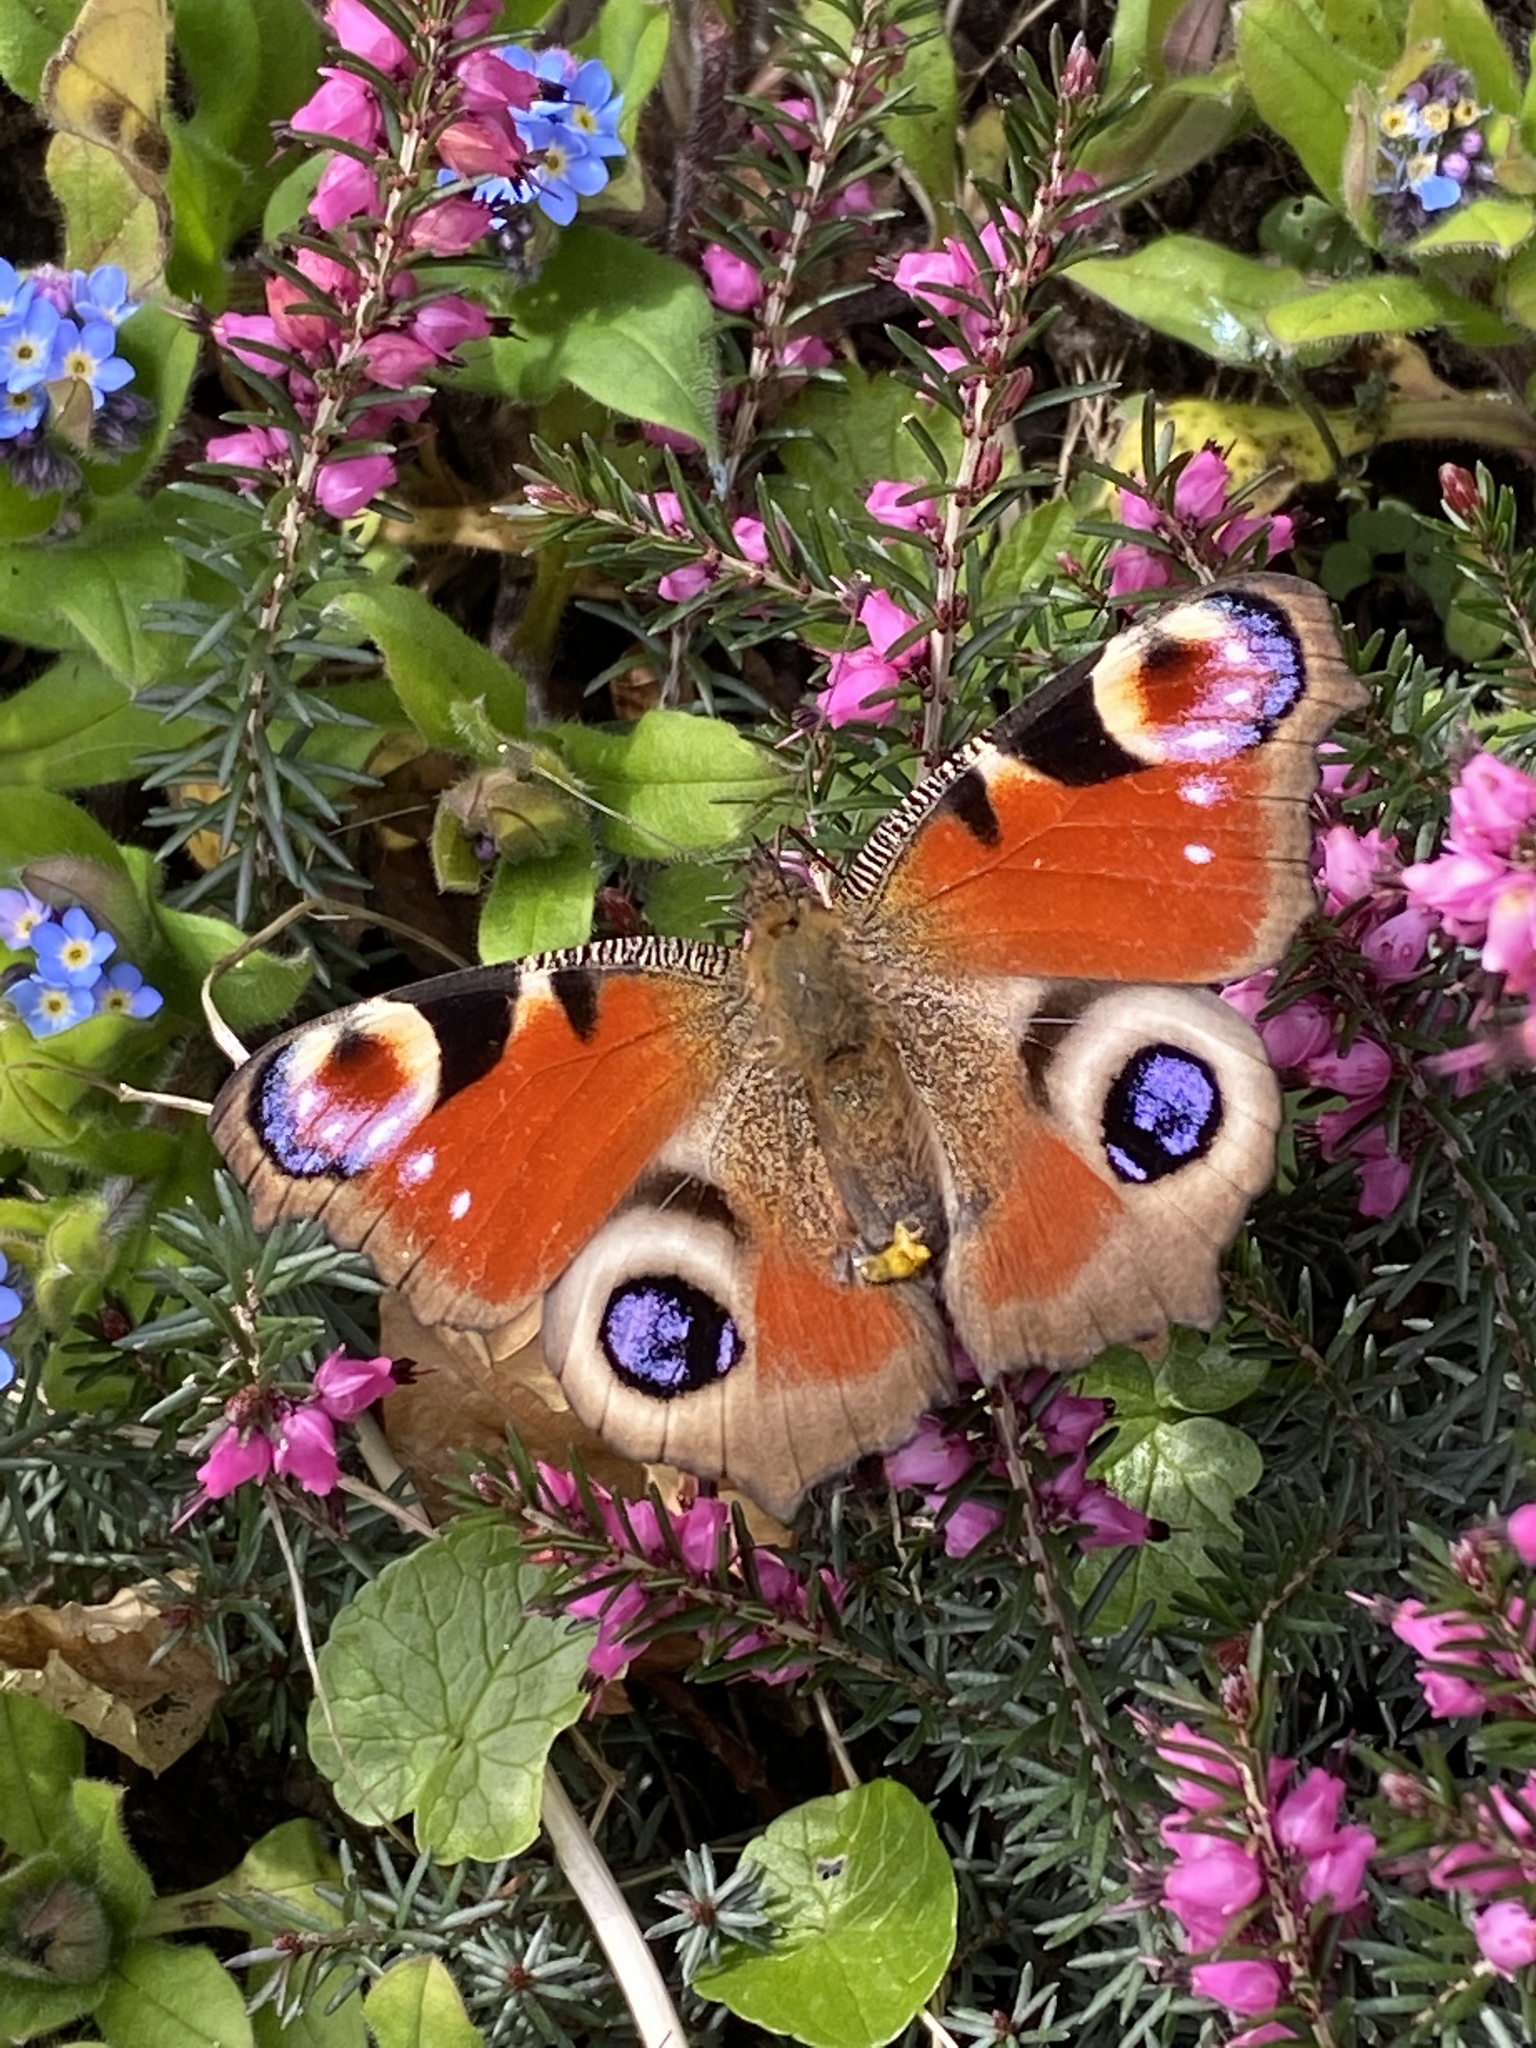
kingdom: Animalia
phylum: Arthropoda
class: Insecta
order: Lepidoptera
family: Nymphalidae
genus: Aglais
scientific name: Aglais io
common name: Peacock
